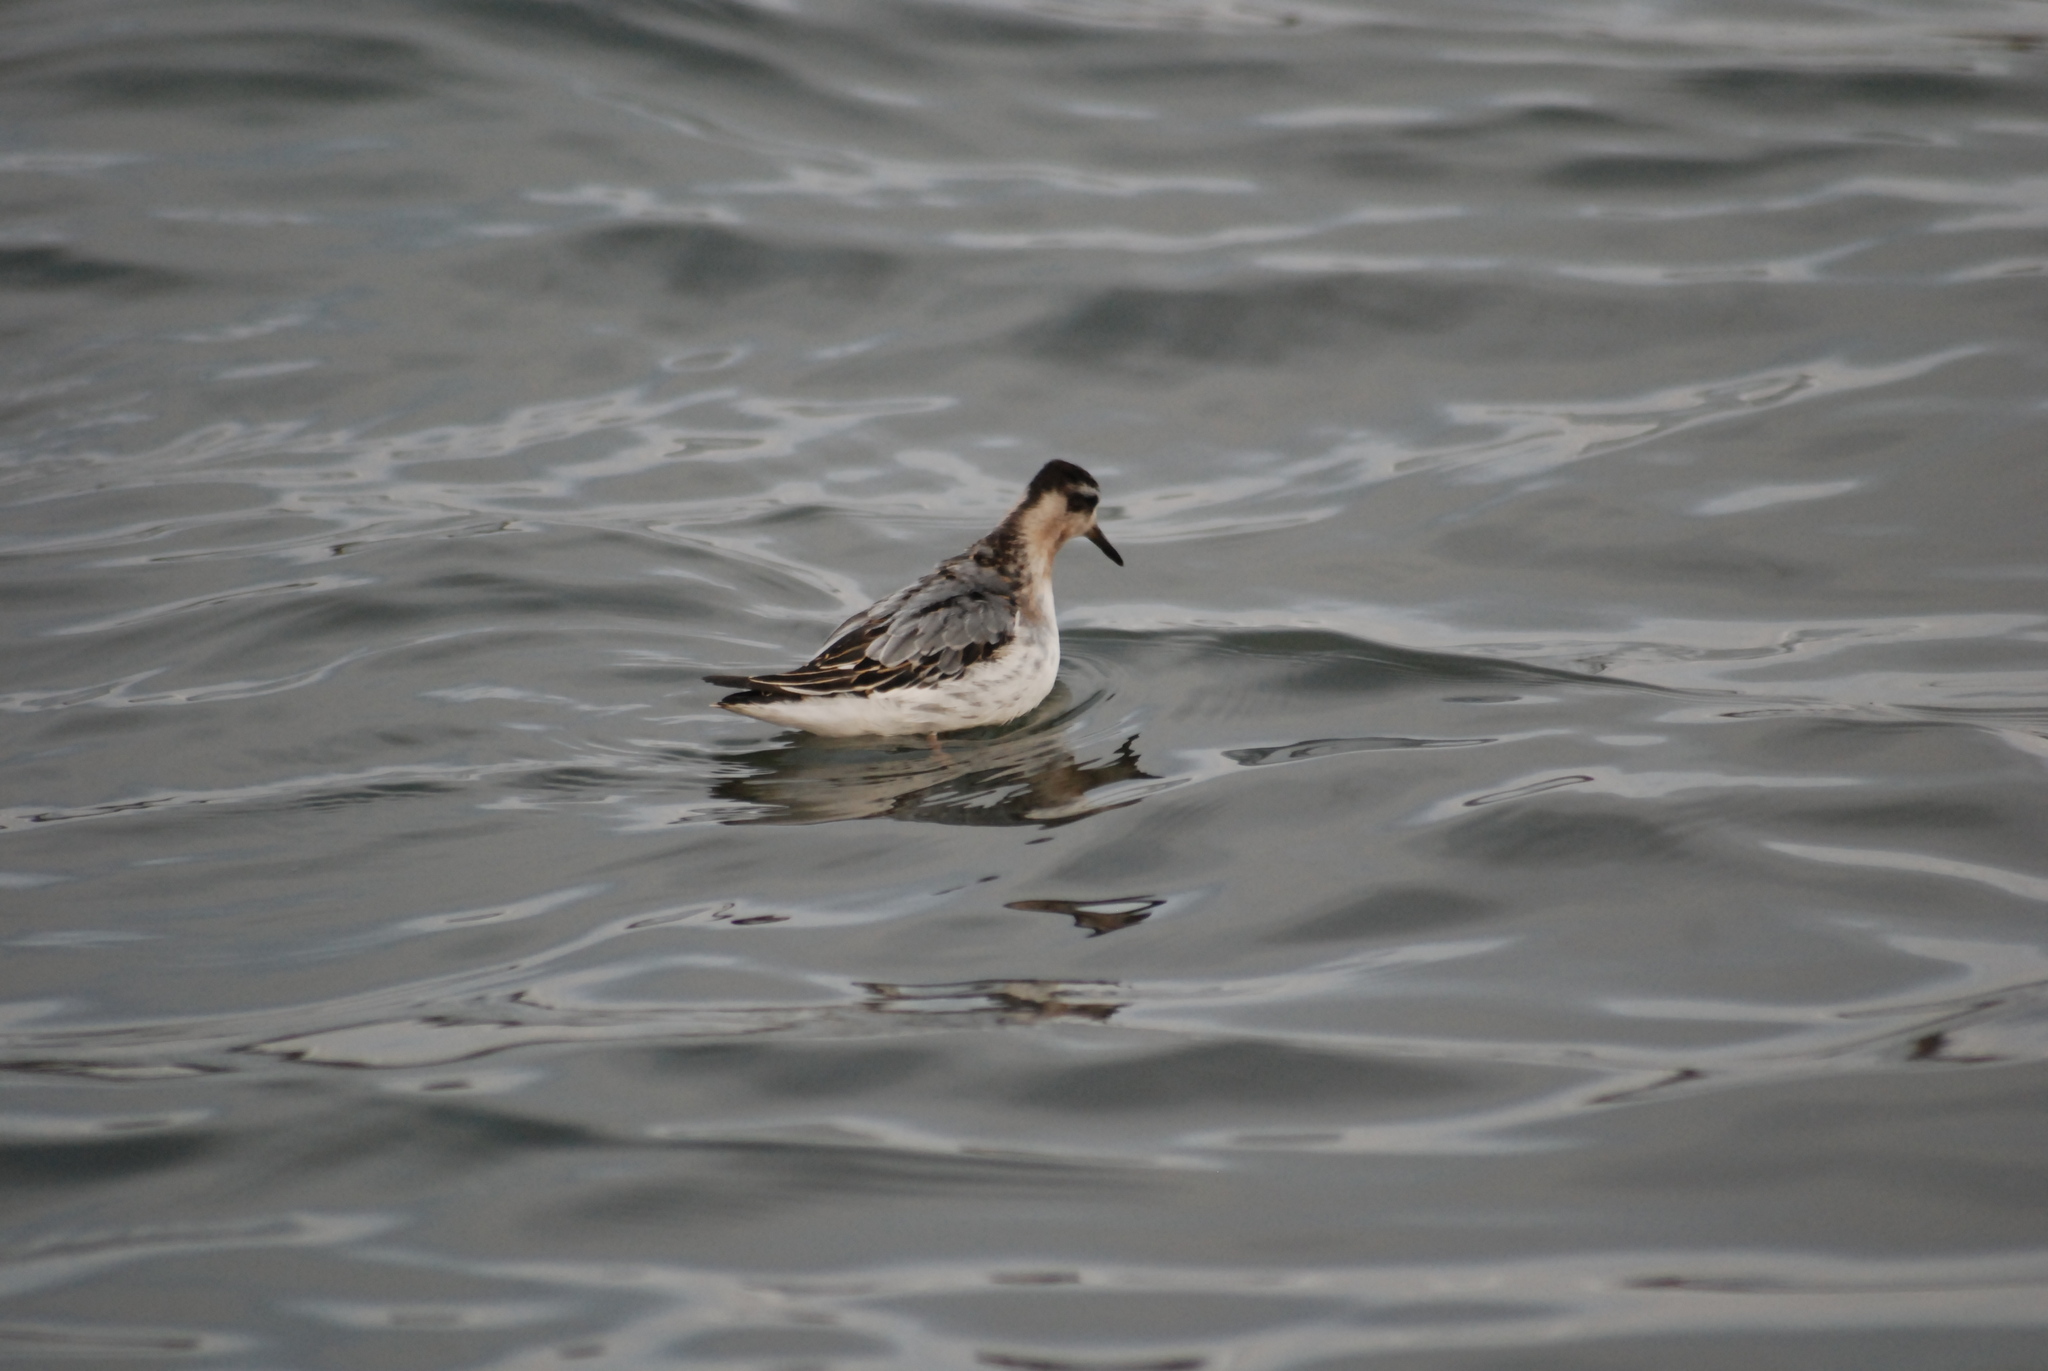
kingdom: Animalia
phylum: Chordata
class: Aves
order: Charadriiformes
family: Scolopacidae
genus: Phalaropus
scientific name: Phalaropus fulicarius
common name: Red phalarope
